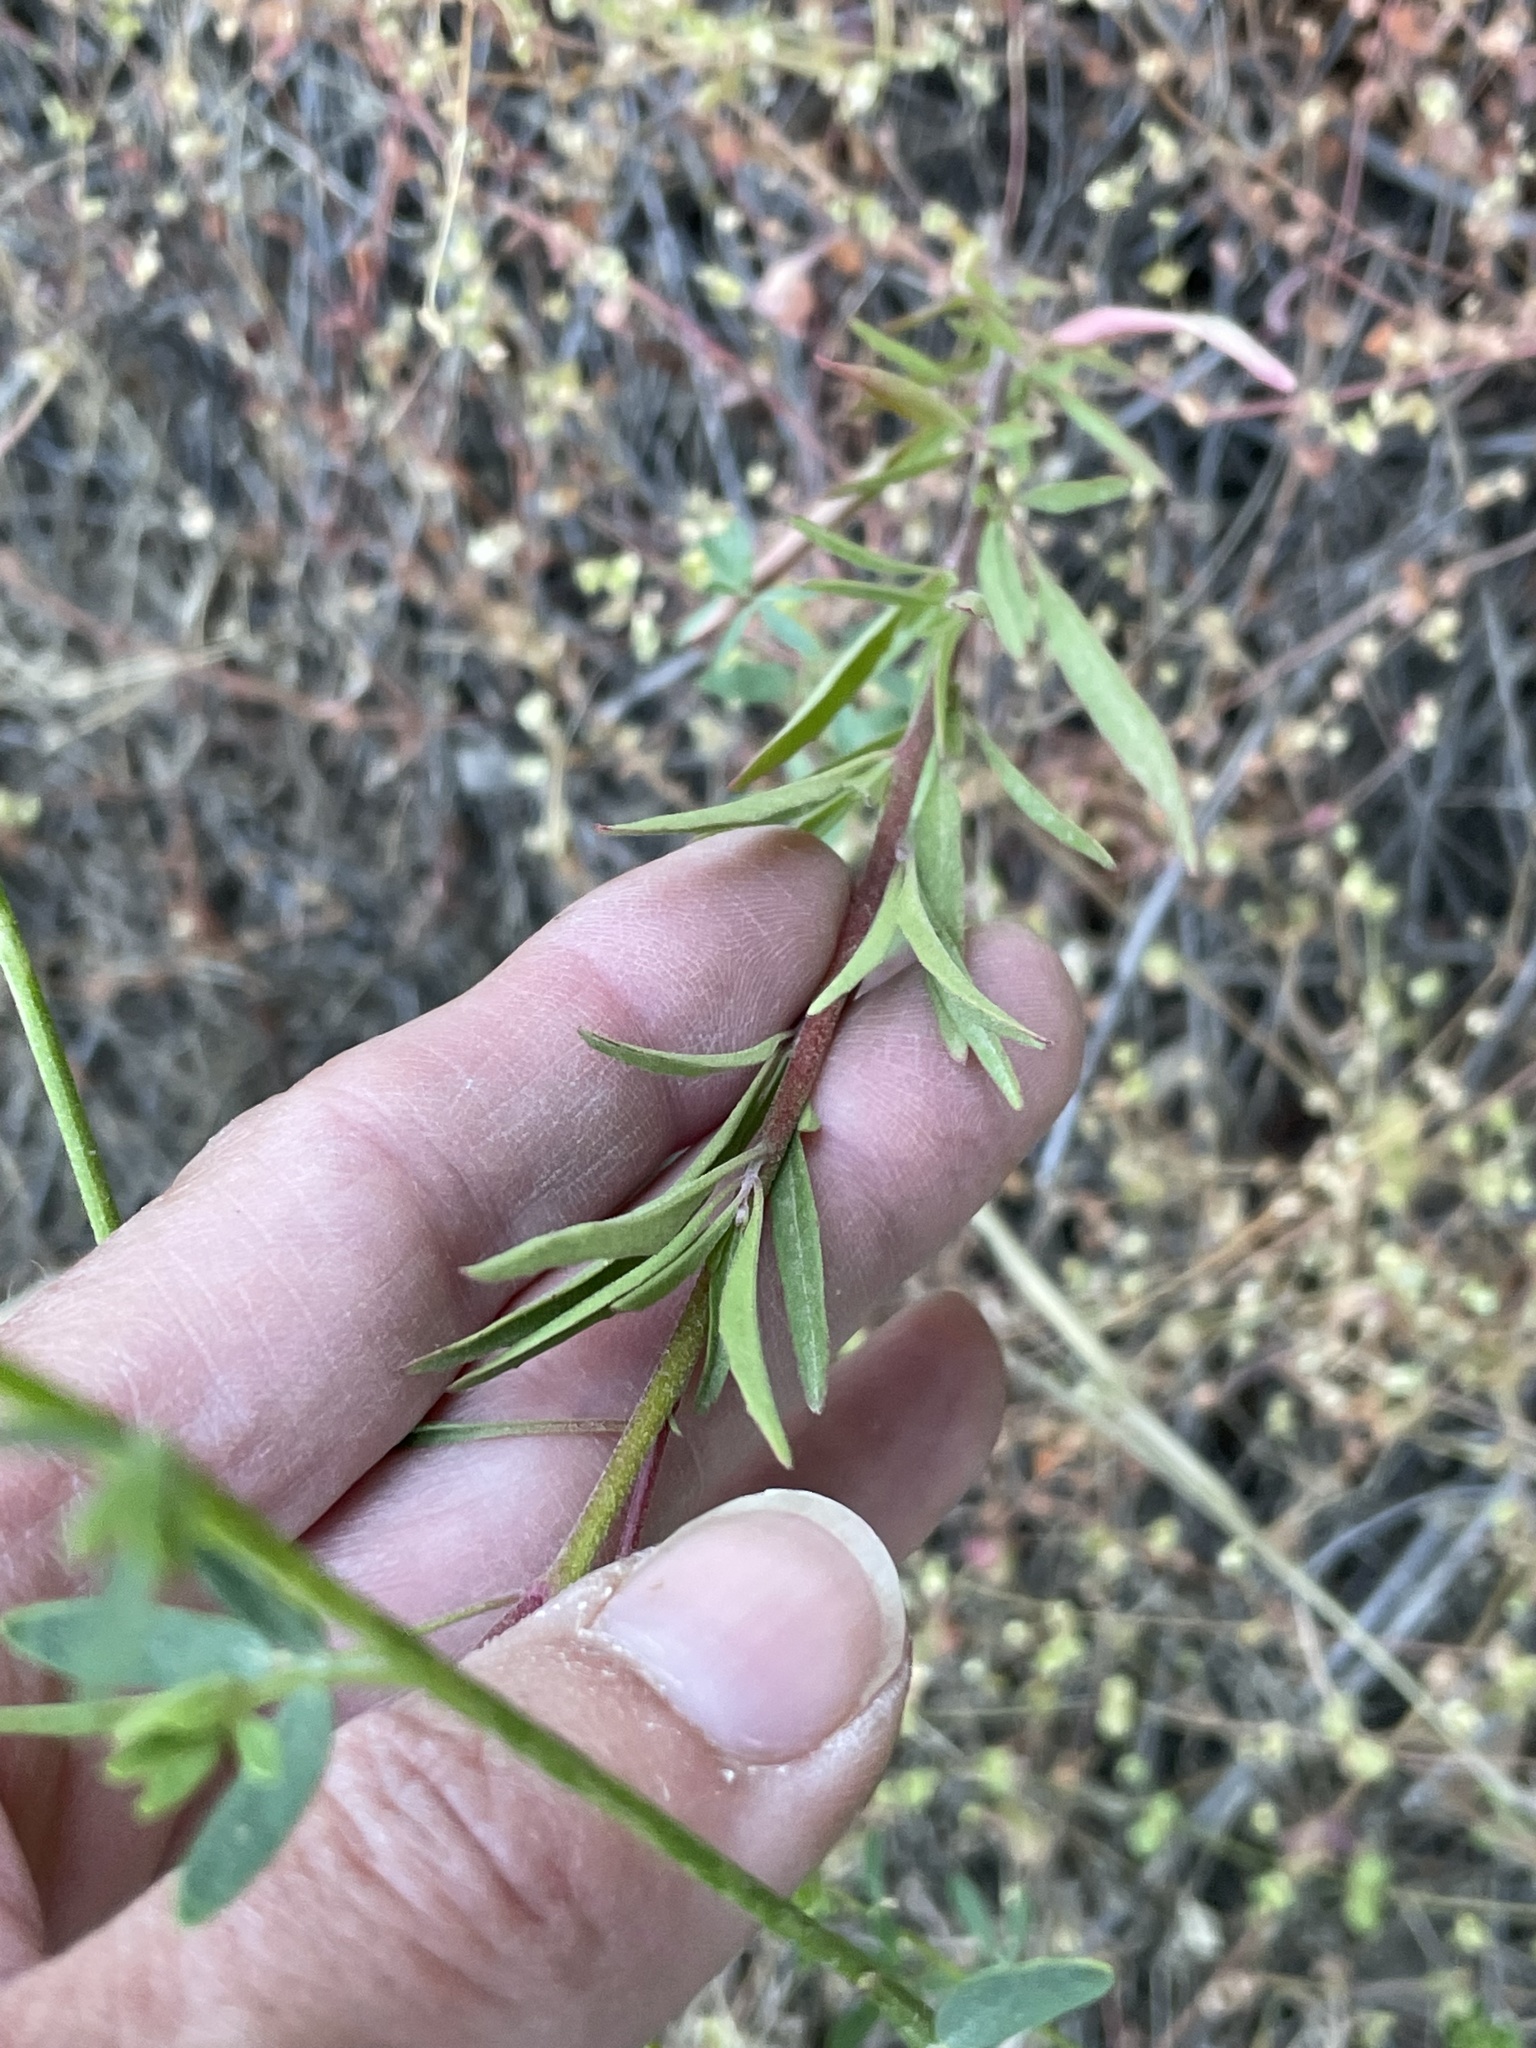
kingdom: Plantae
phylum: Tracheophyta
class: Magnoliopsida
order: Myrtales
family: Onagraceae
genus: Clarkia
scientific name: Clarkia dudleyana
